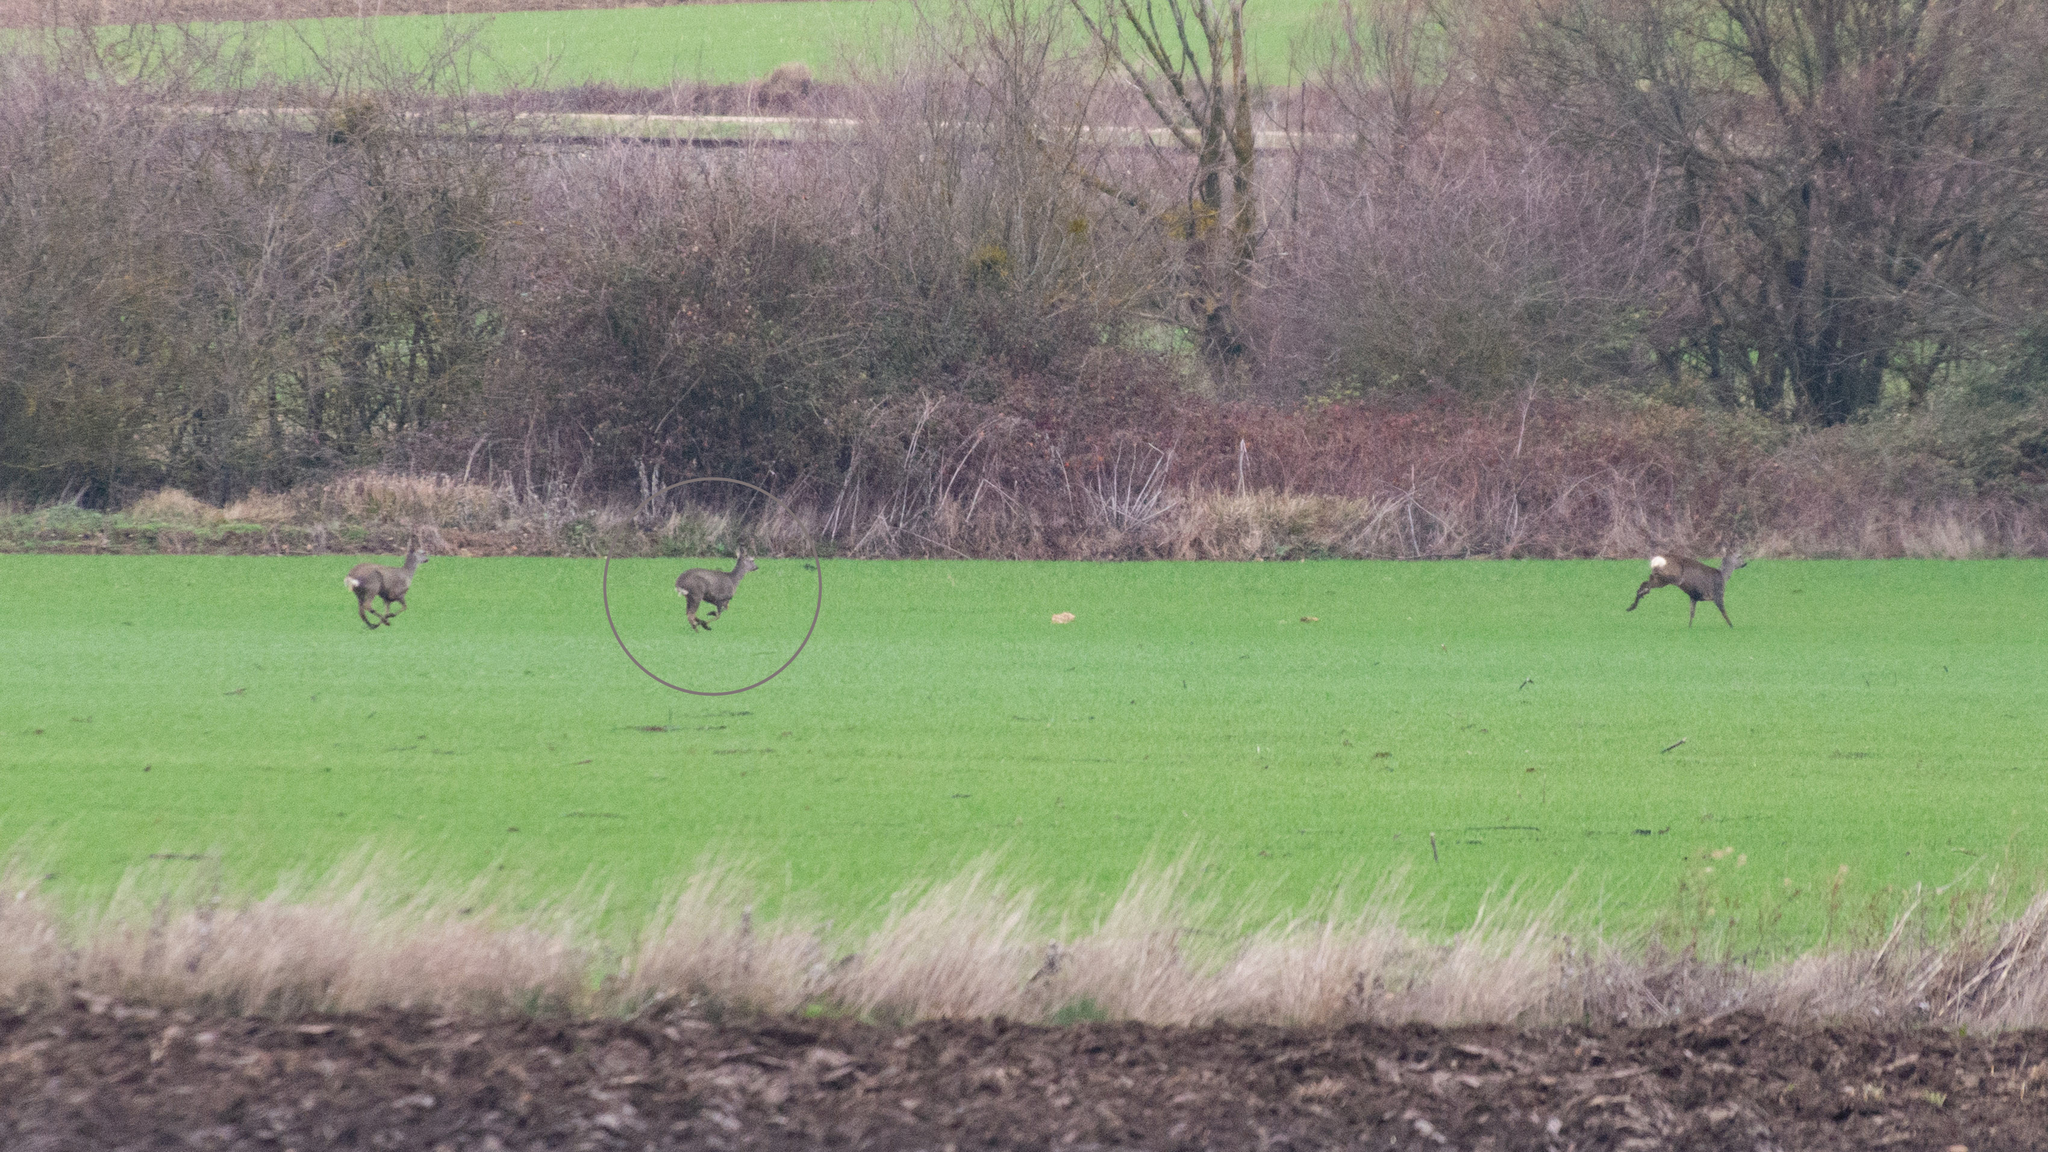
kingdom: Animalia
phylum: Chordata
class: Mammalia
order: Artiodactyla
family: Cervidae
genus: Capreolus
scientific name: Capreolus capreolus
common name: Western roe deer
